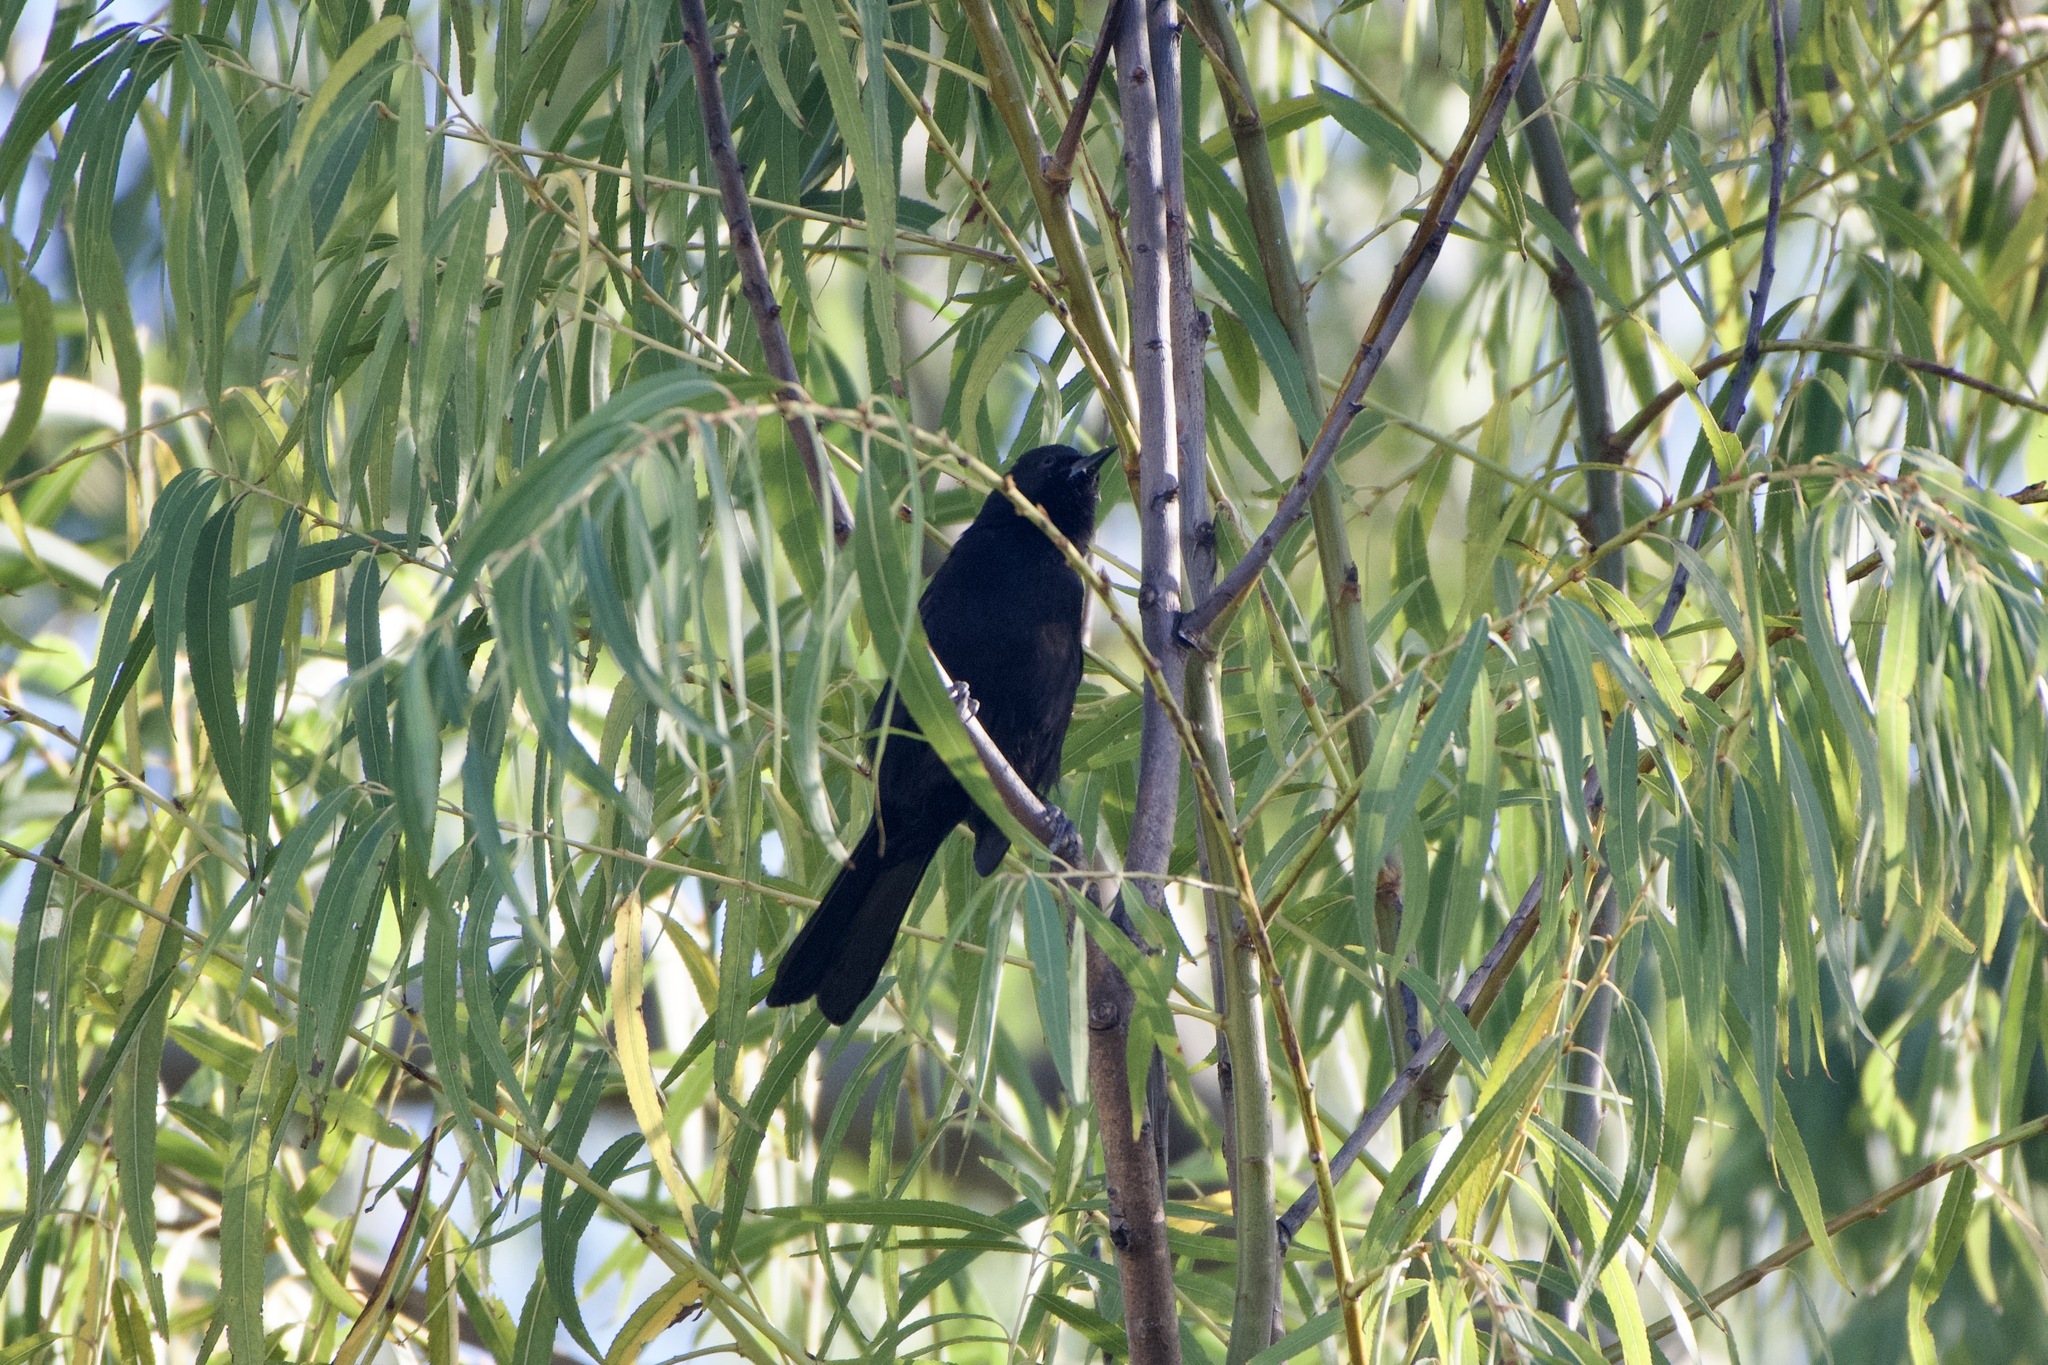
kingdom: Animalia
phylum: Chordata
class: Aves
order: Passeriformes
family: Icteridae
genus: Icterus
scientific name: Icterus cayanensis
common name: Epaulet oriole
